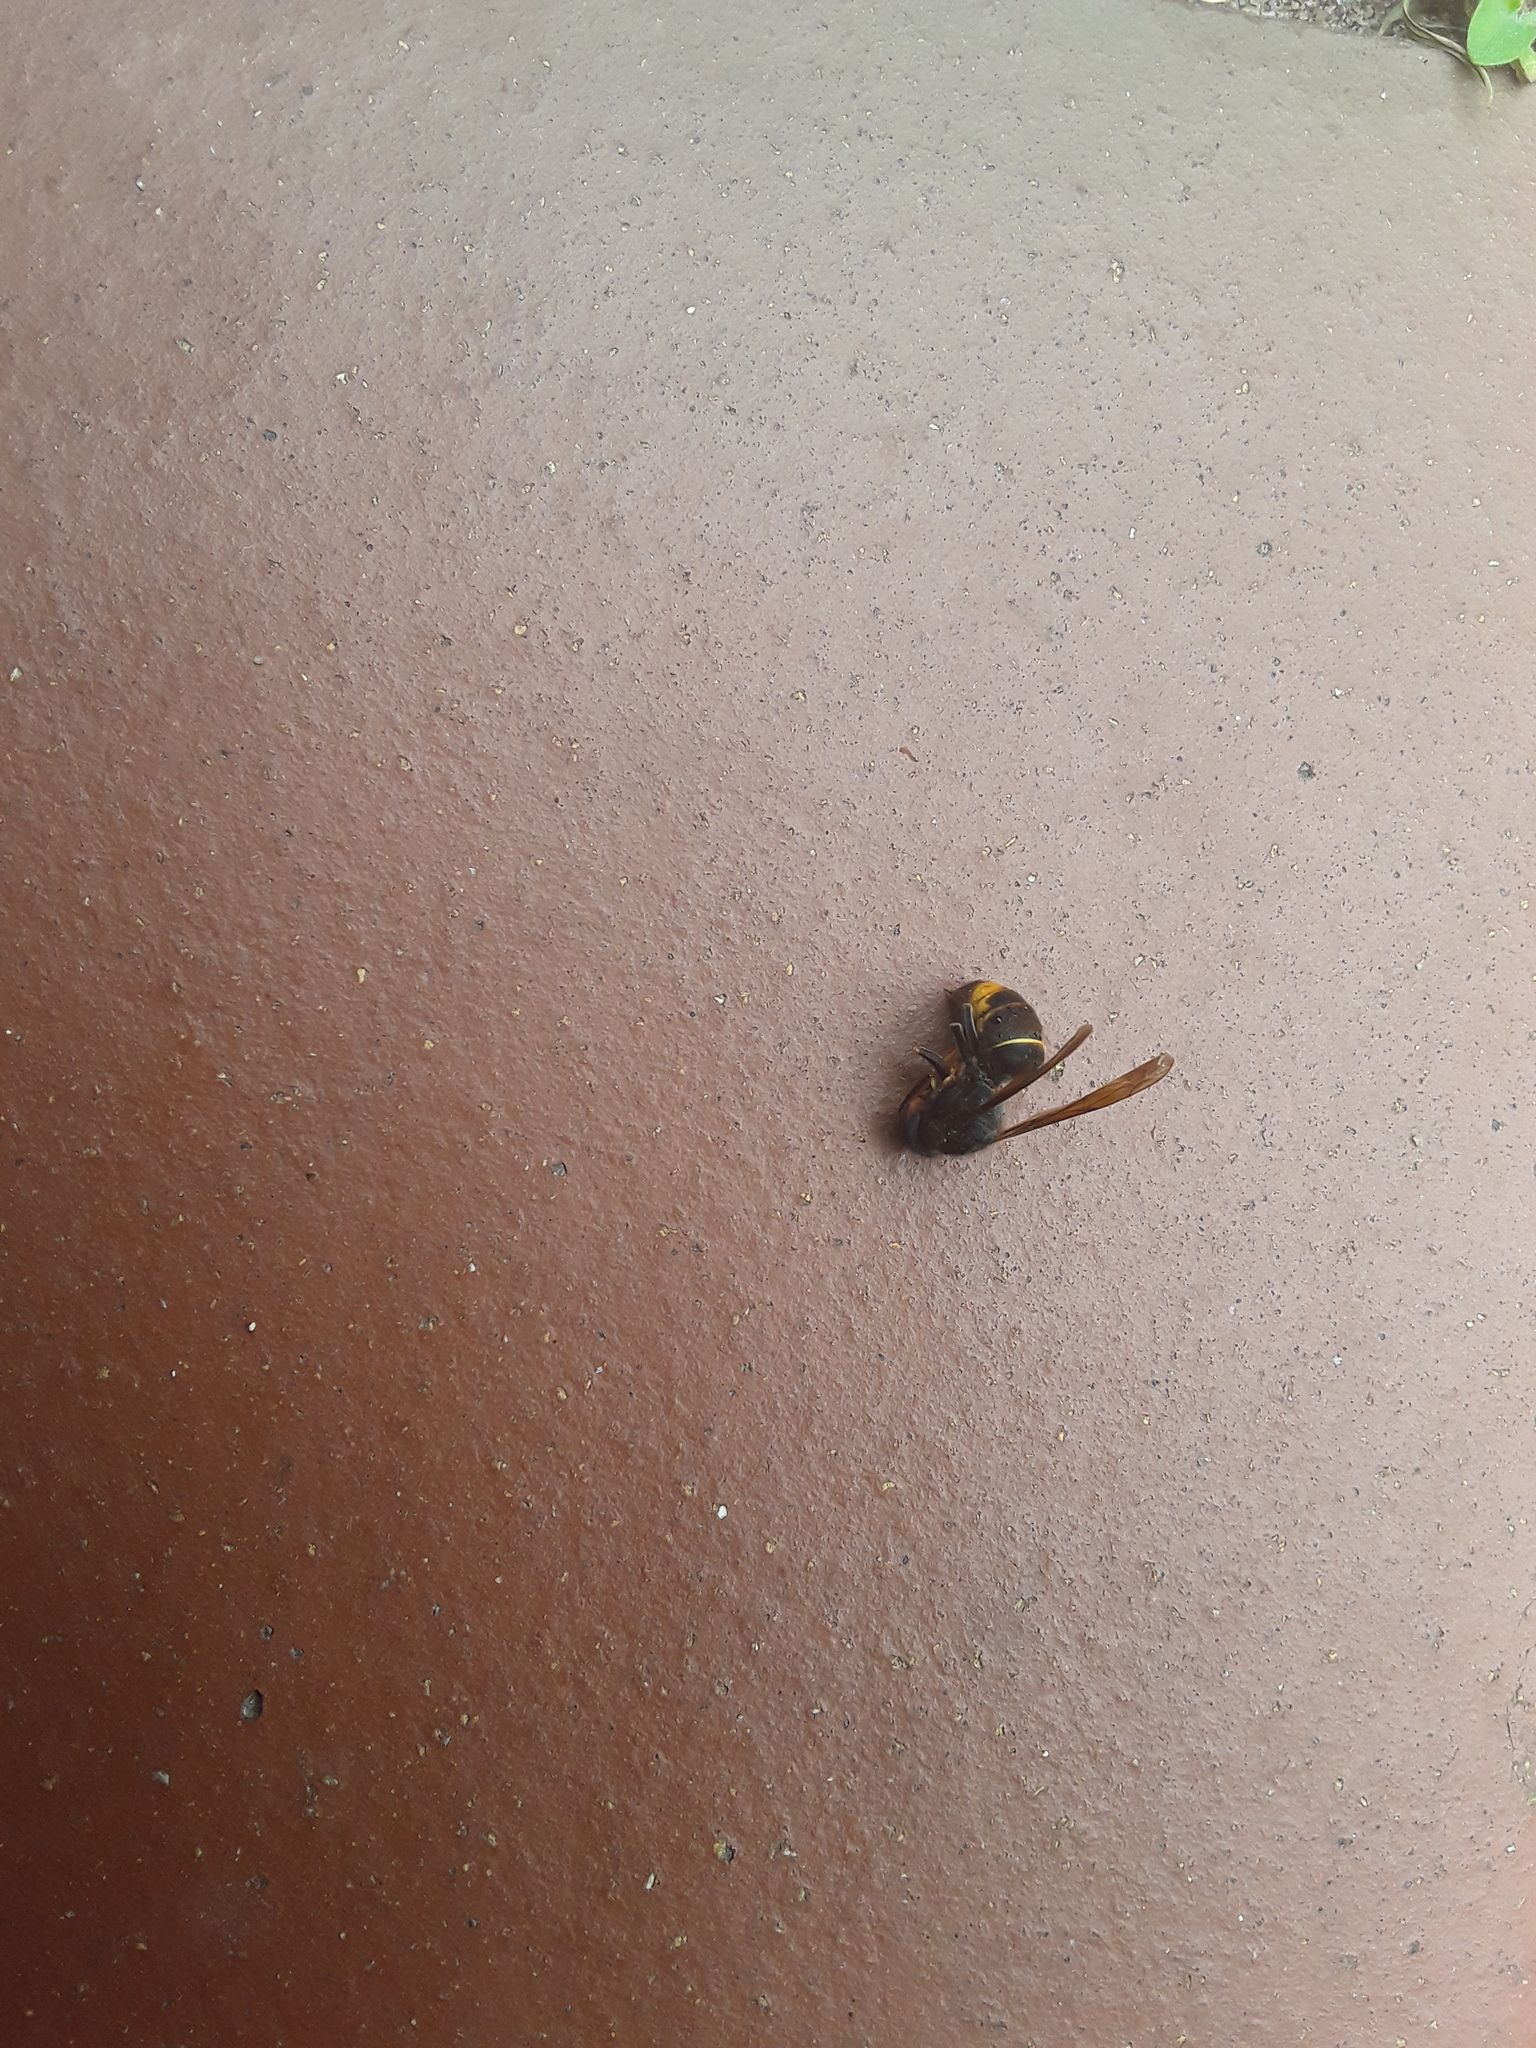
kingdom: Animalia
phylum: Arthropoda
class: Insecta
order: Hymenoptera
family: Vespidae
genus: Vespa
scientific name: Vespa velutina
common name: Asian hornet
